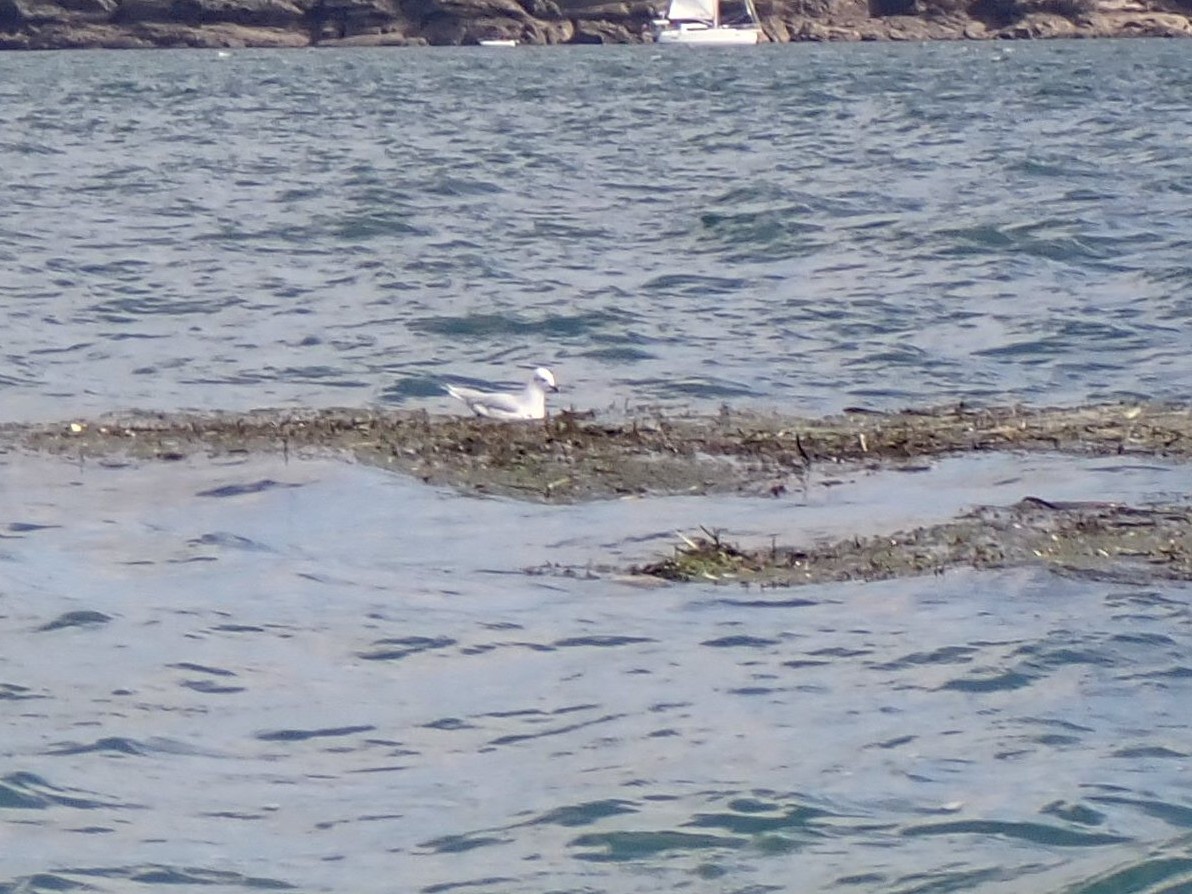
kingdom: Animalia
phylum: Chordata
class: Aves
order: Charadriiformes
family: Laridae
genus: Ichthyaetus
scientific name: Ichthyaetus melanocephalus
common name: Mediterranean gull
